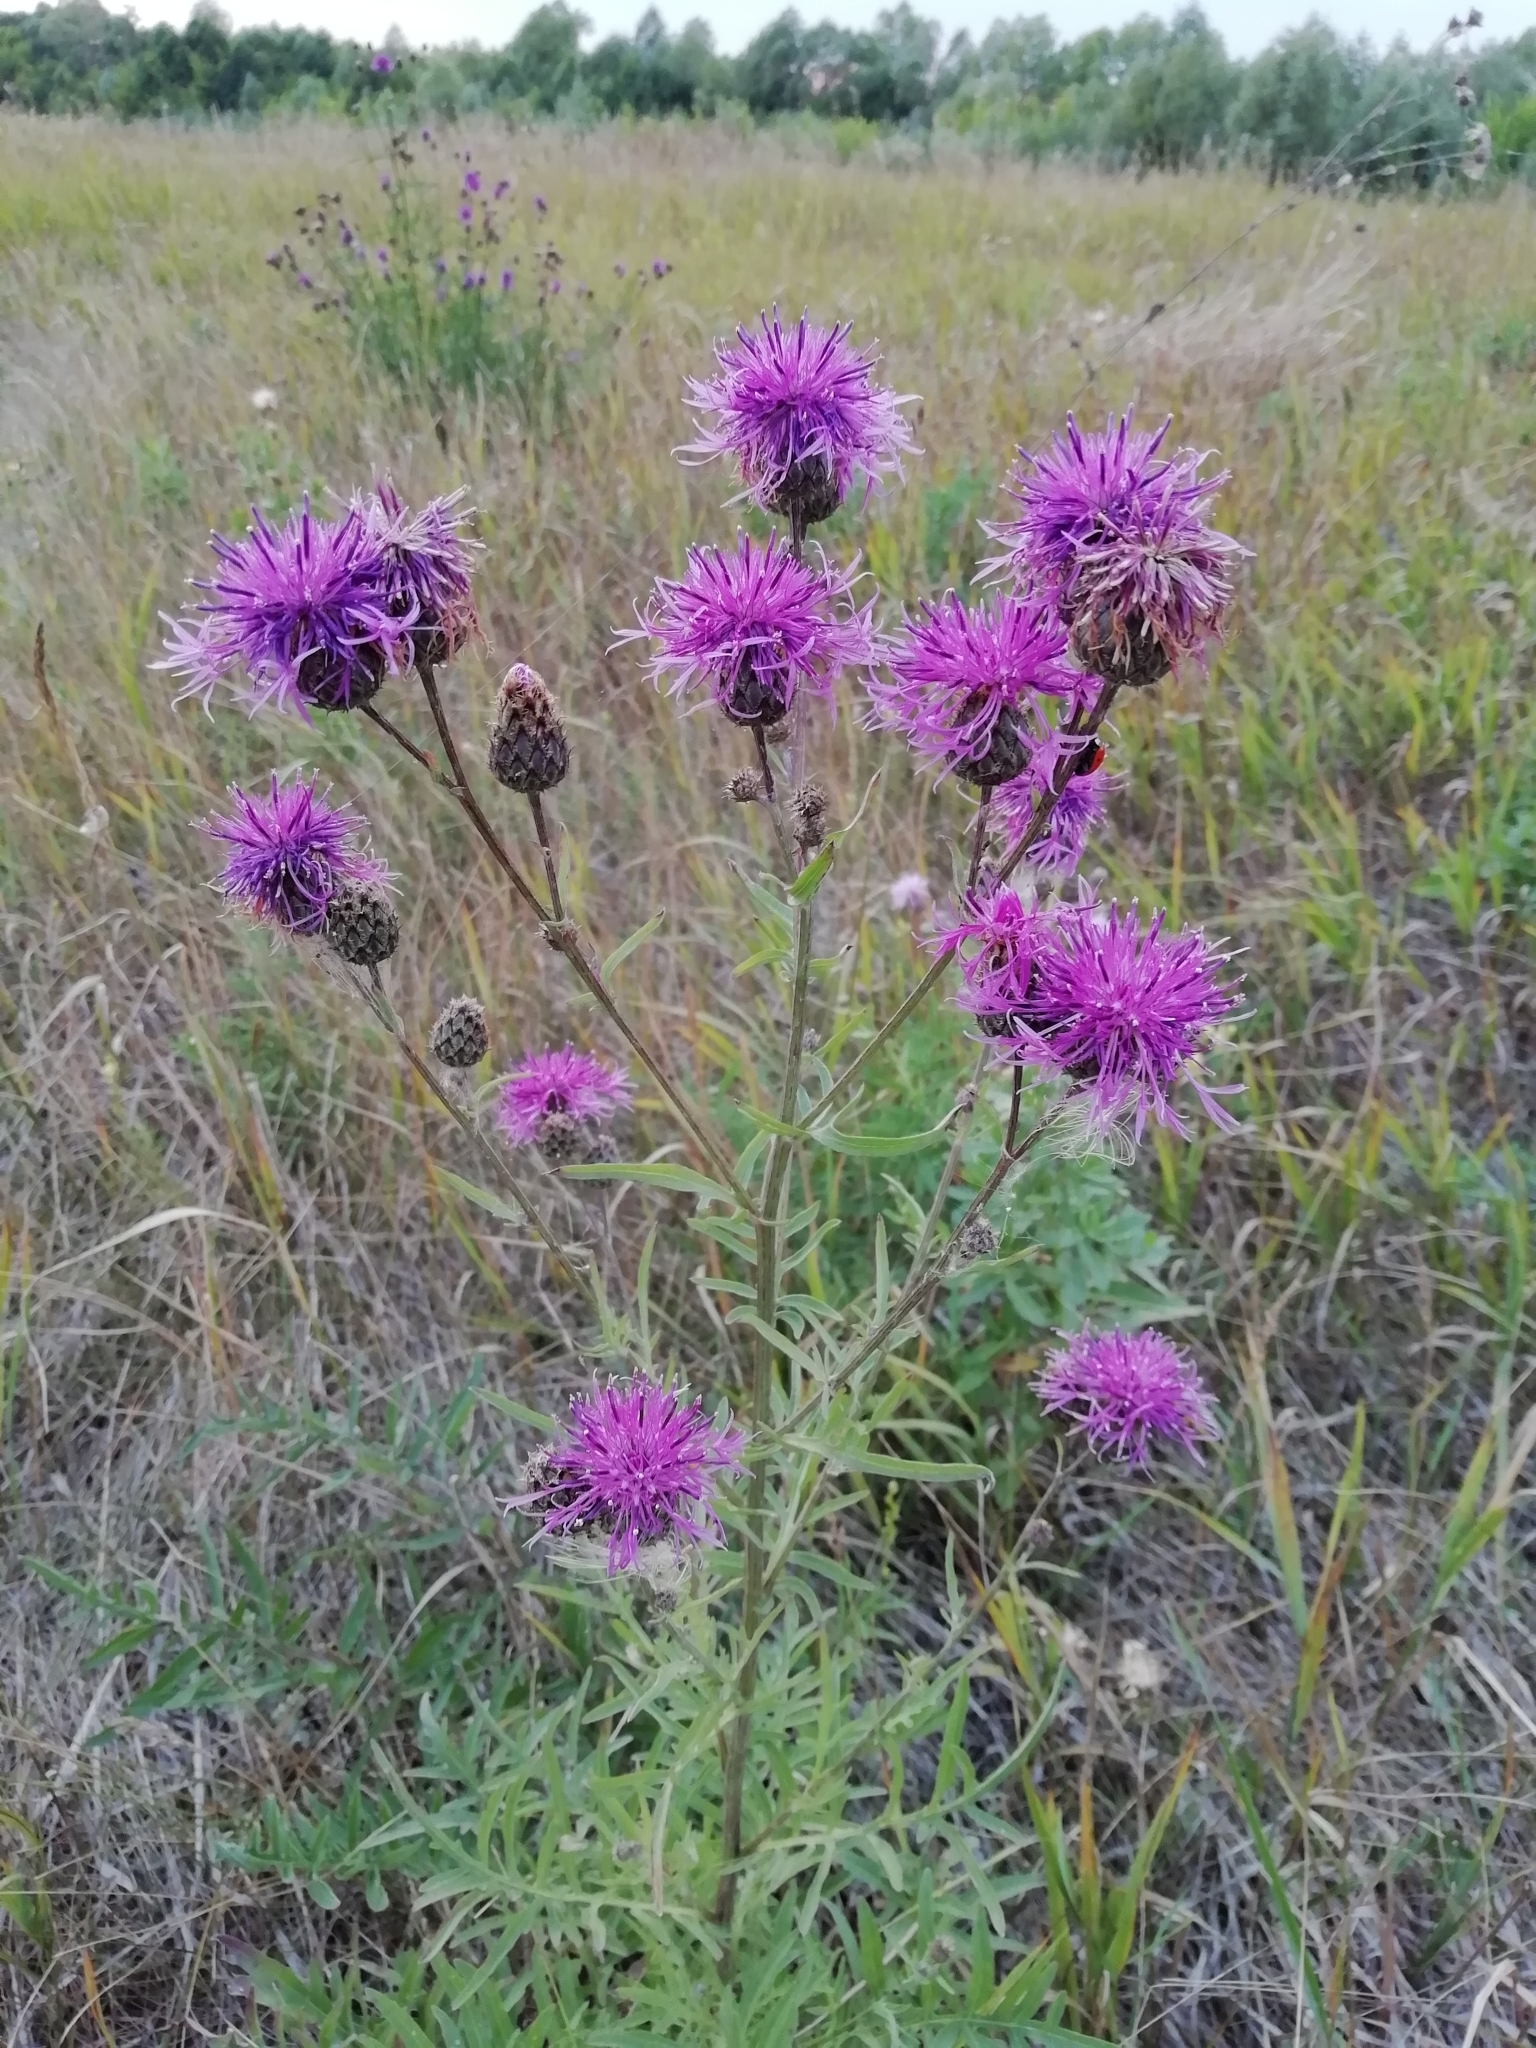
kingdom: Plantae
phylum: Tracheophyta
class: Magnoliopsida
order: Asterales
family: Asteraceae
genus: Centaurea
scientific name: Centaurea scabiosa
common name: Greater knapweed
